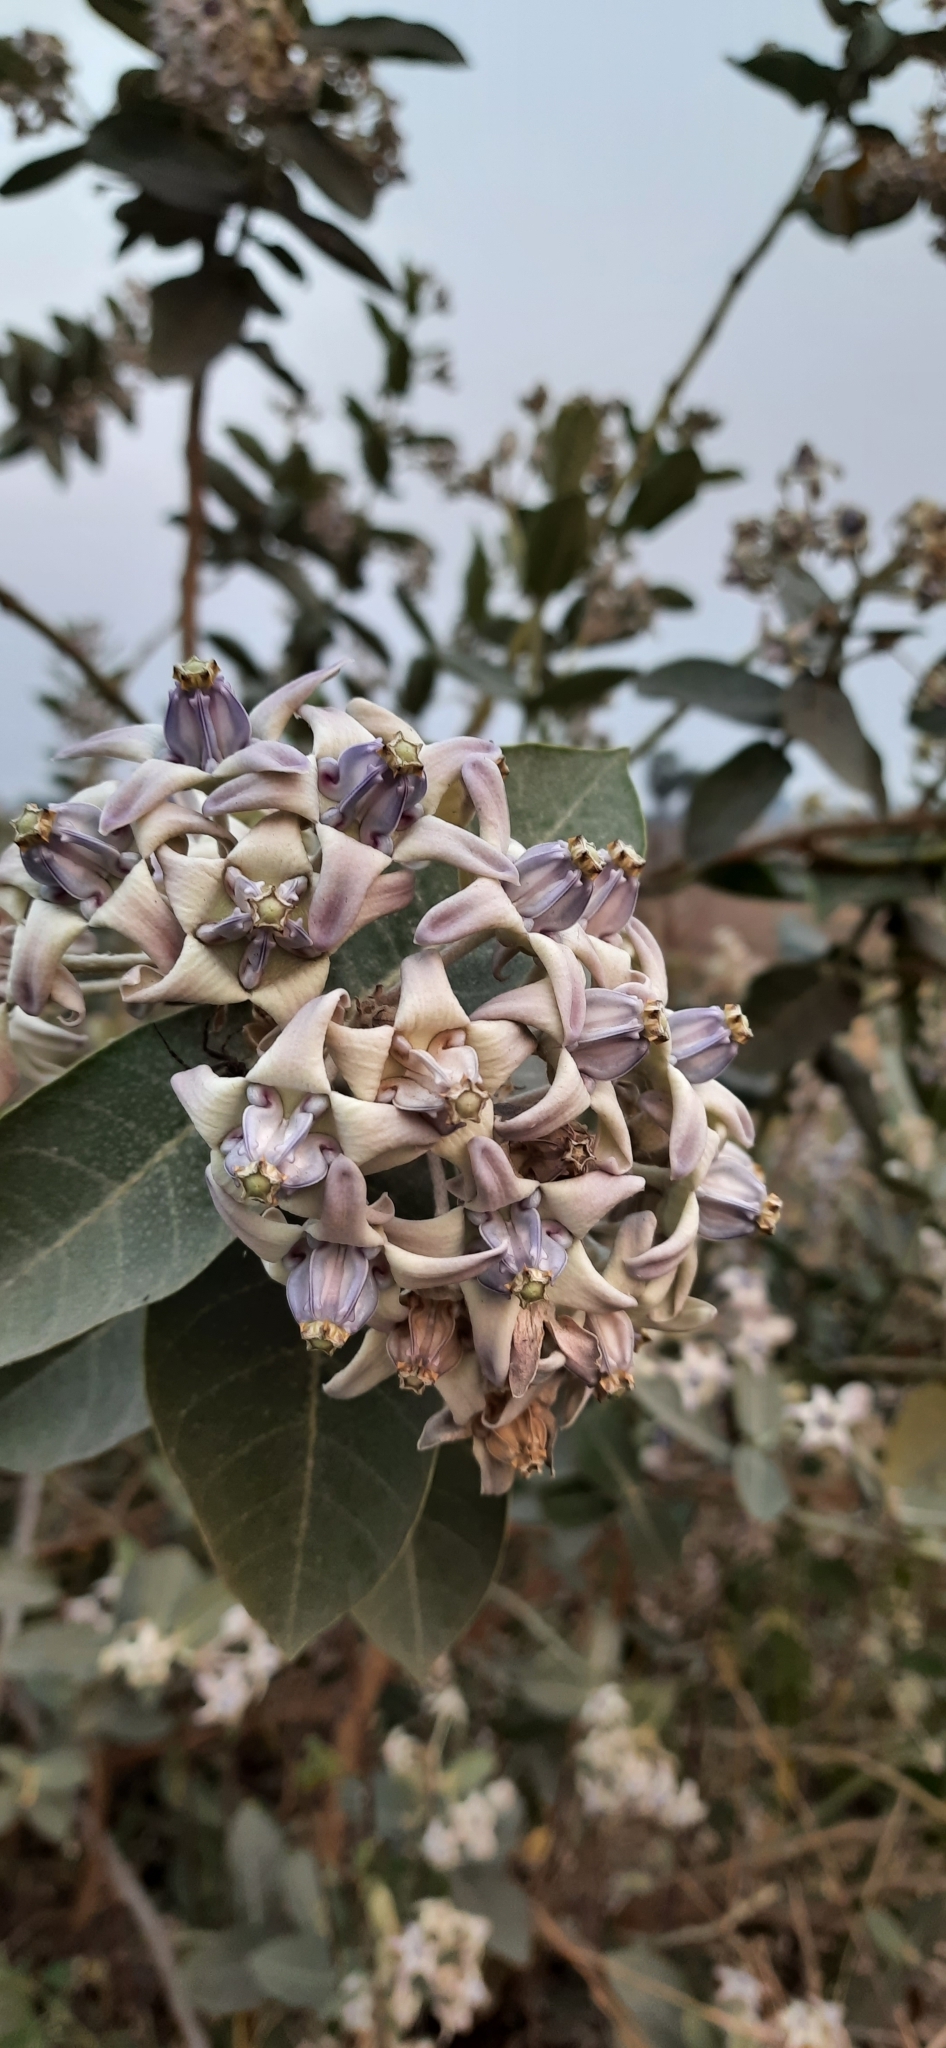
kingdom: Plantae
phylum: Tracheophyta
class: Magnoliopsida
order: Gentianales
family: Apocynaceae
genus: Calotropis
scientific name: Calotropis gigantea
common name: Crown flower
